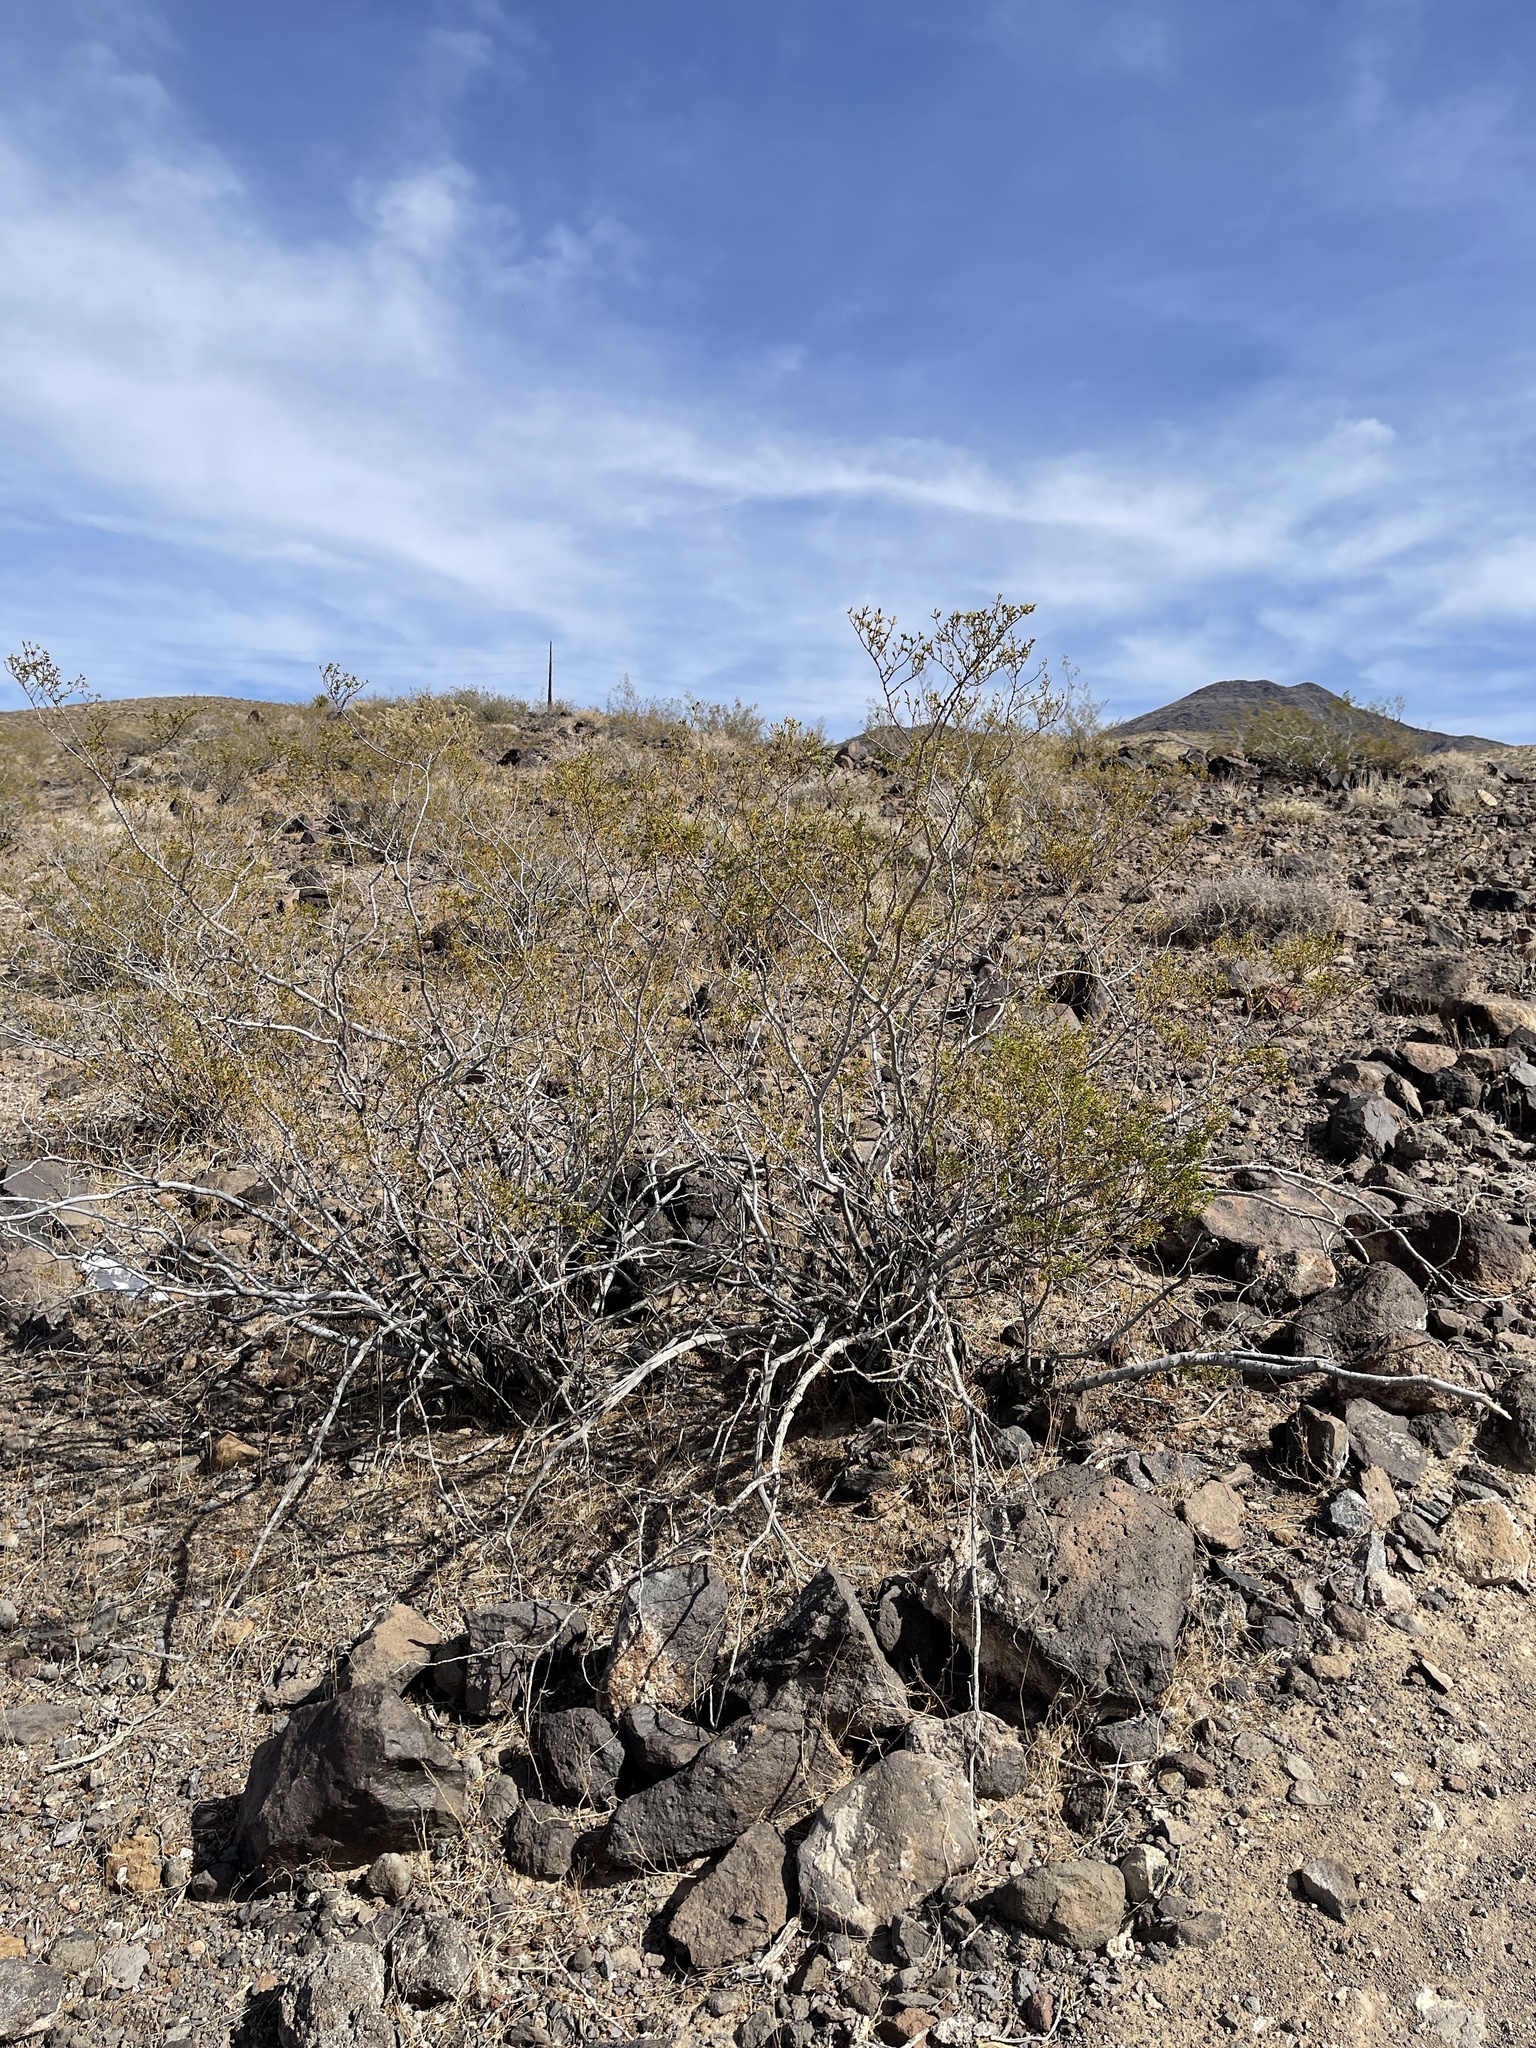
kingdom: Plantae
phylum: Tracheophyta
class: Magnoliopsida
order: Zygophyllales
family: Zygophyllaceae
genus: Larrea
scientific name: Larrea tridentata
